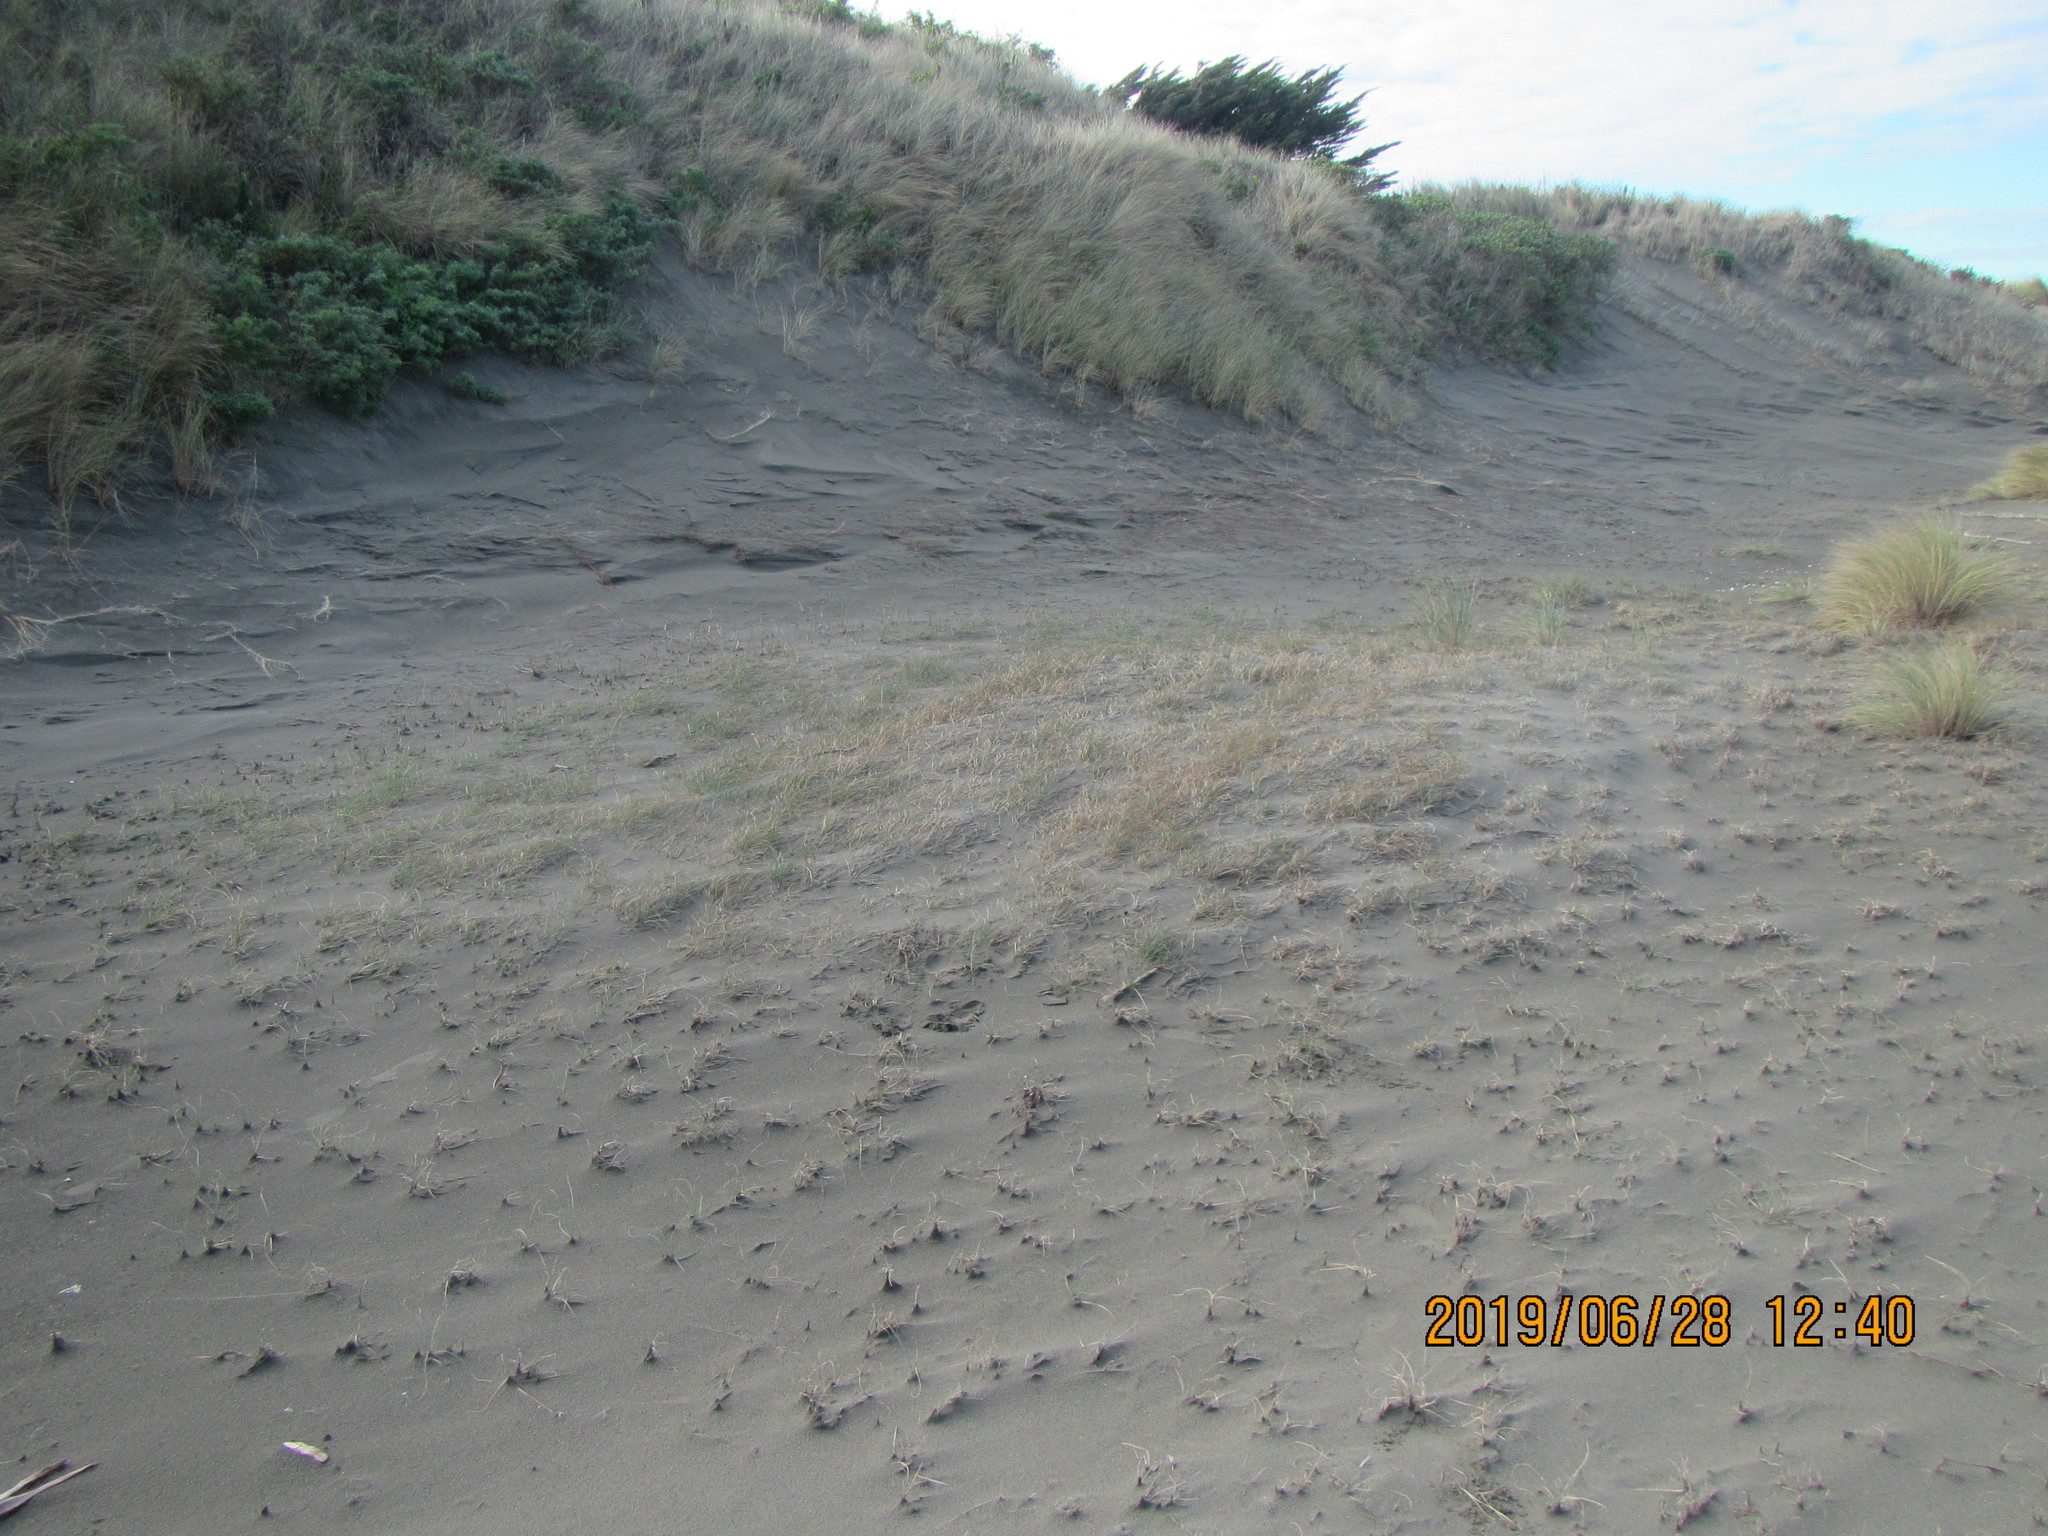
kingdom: Plantae
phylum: Tracheophyta
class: Liliopsida
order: Poales
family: Cyperaceae
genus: Carex
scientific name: Carex pumila
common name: Dwarf sedge
